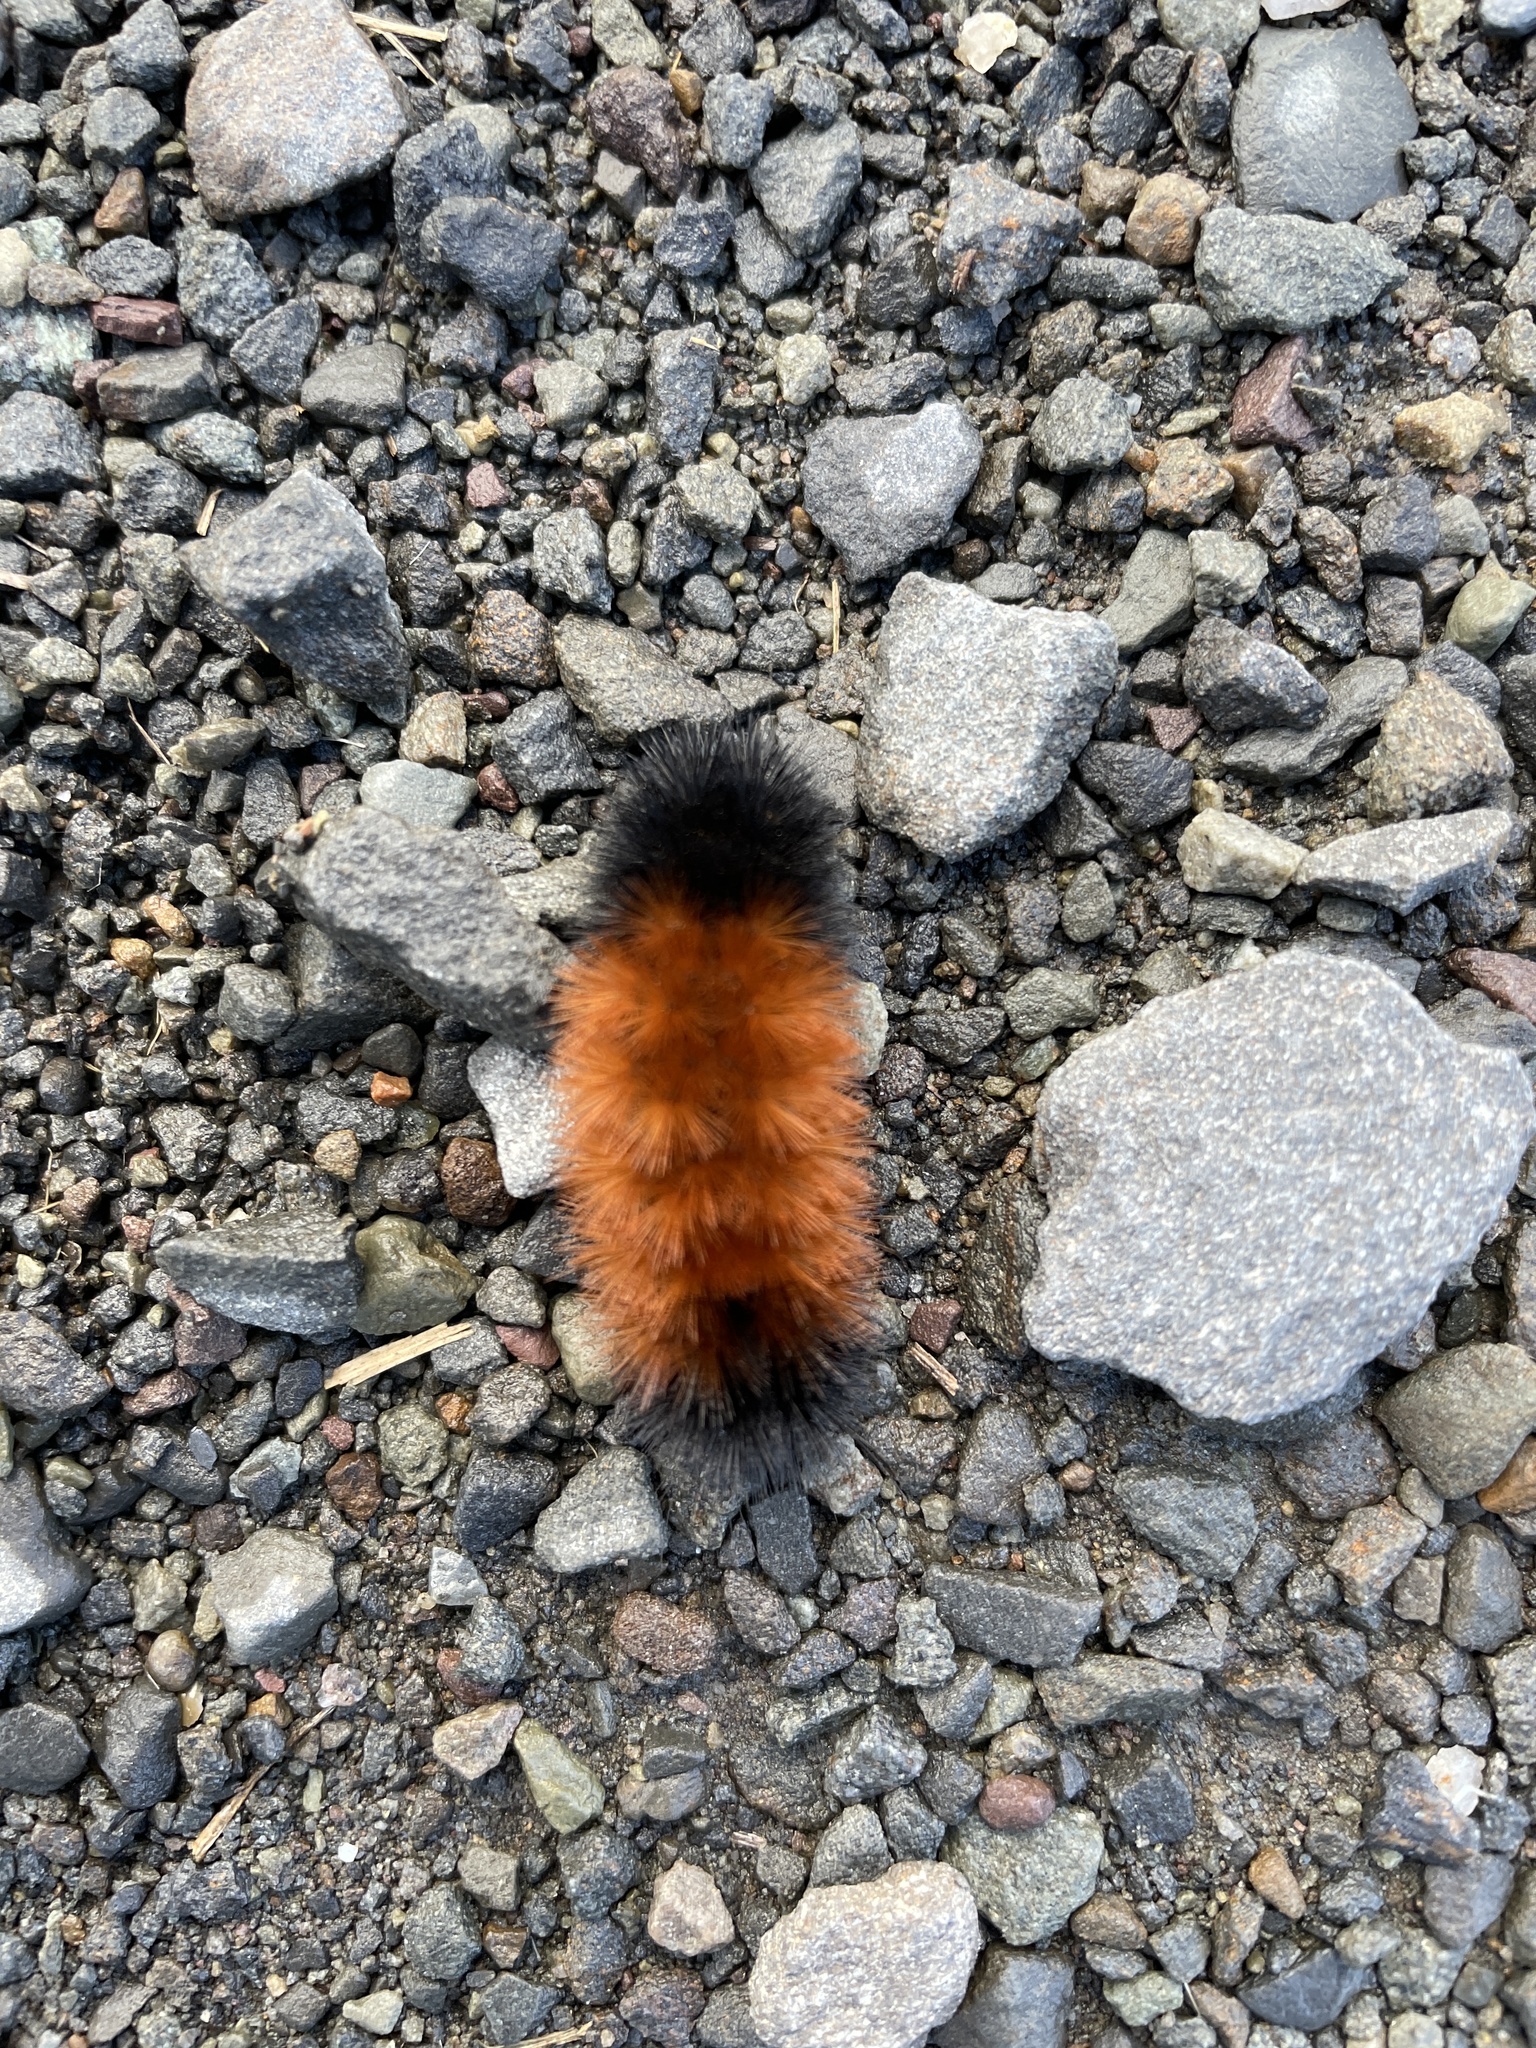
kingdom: Animalia
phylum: Arthropoda
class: Insecta
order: Lepidoptera
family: Erebidae
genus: Pyrrharctia
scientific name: Pyrrharctia isabella
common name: Isabella tiger moth
